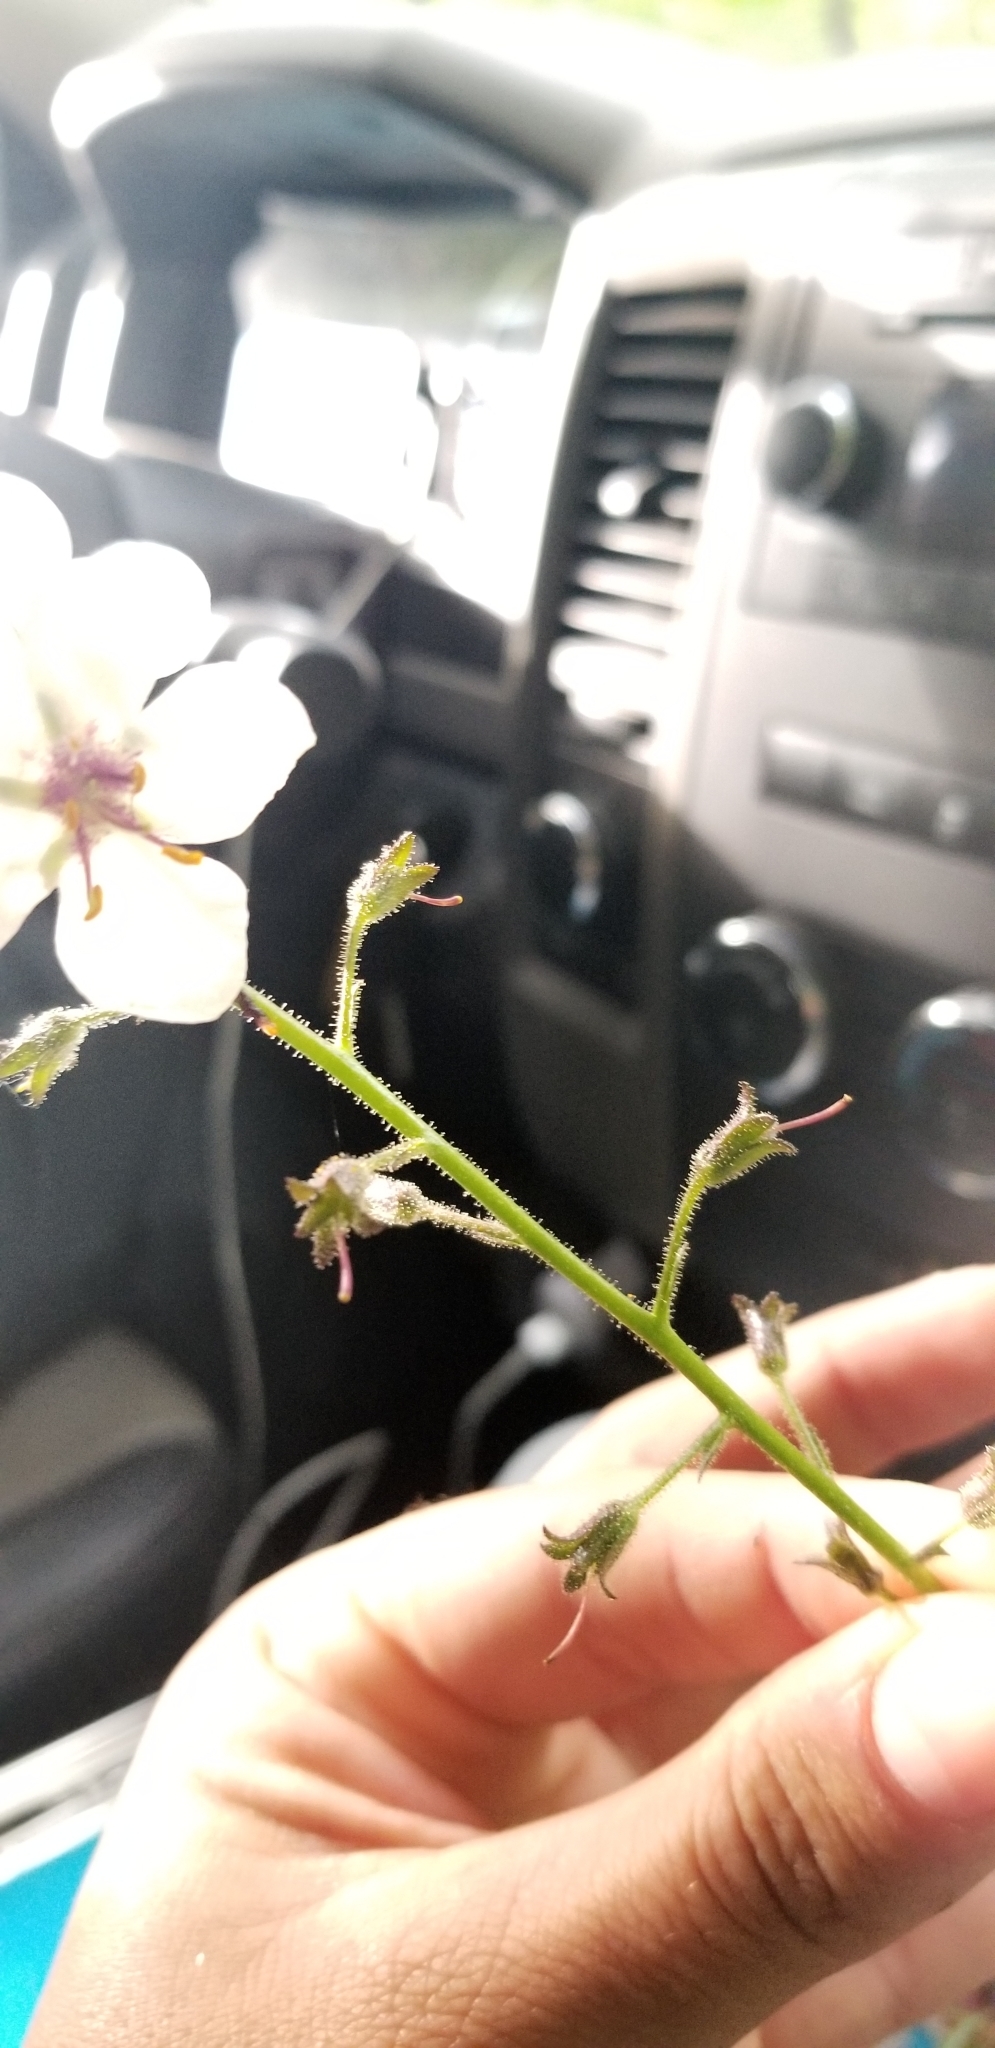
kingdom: Plantae
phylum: Tracheophyta
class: Magnoliopsida
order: Lamiales
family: Scrophulariaceae
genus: Verbascum
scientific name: Verbascum blattaria
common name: Moth mullein
